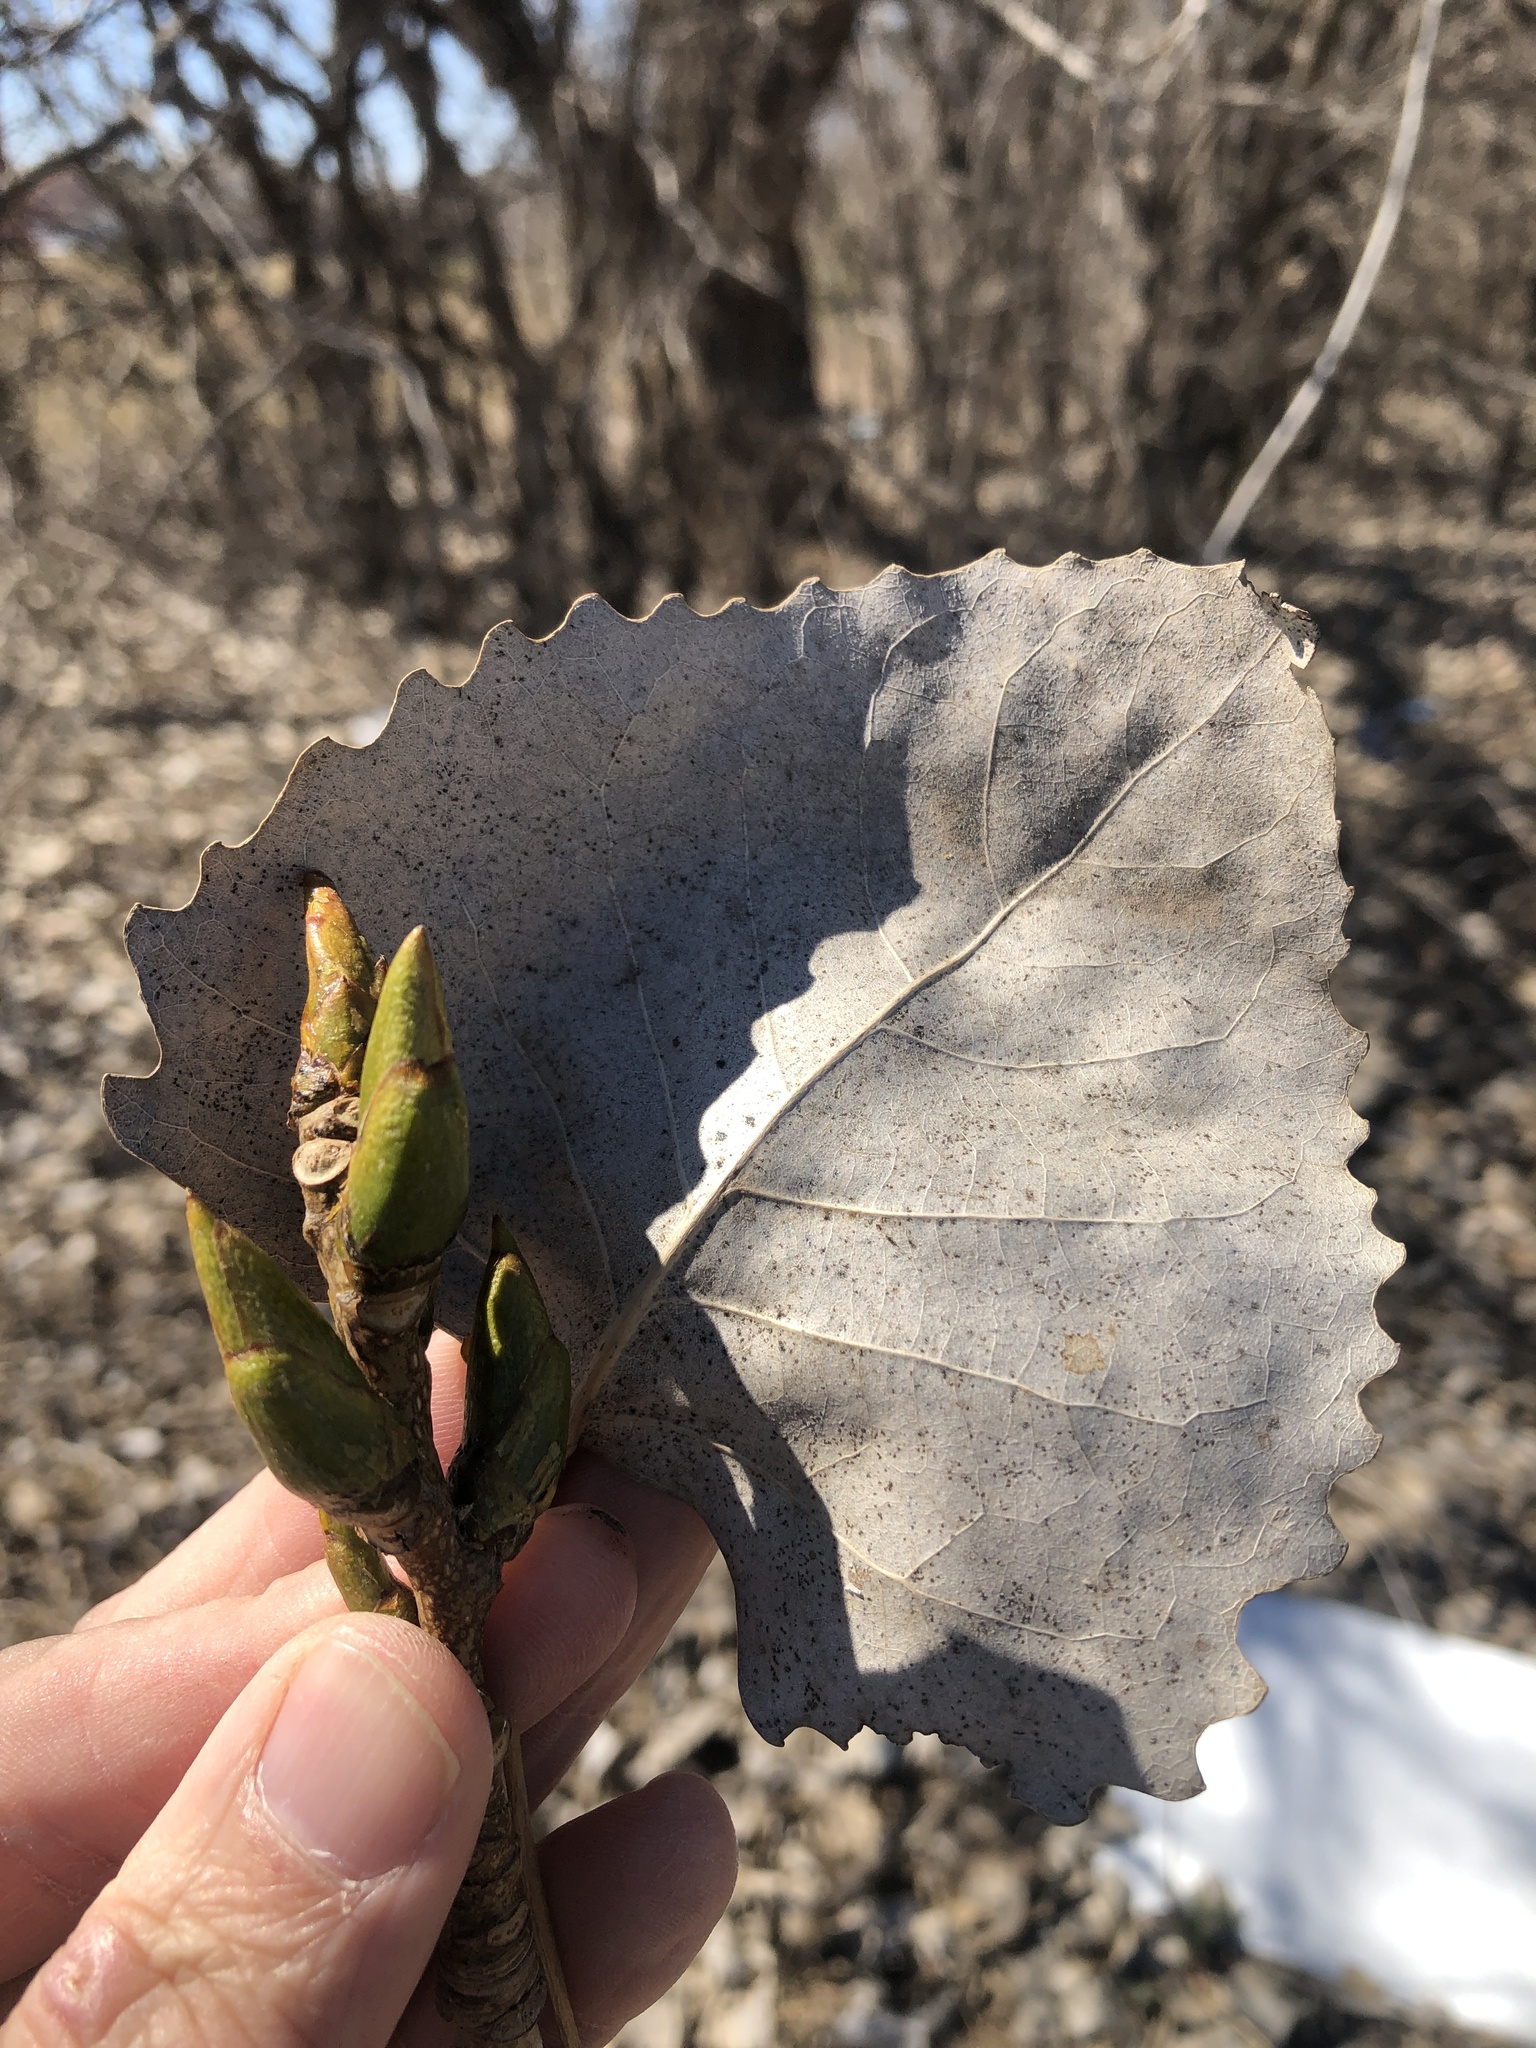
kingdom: Plantae
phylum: Tracheophyta
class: Magnoliopsida
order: Malpighiales
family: Salicaceae
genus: Populus
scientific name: Populus deltoides
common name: Eastern cottonwood
